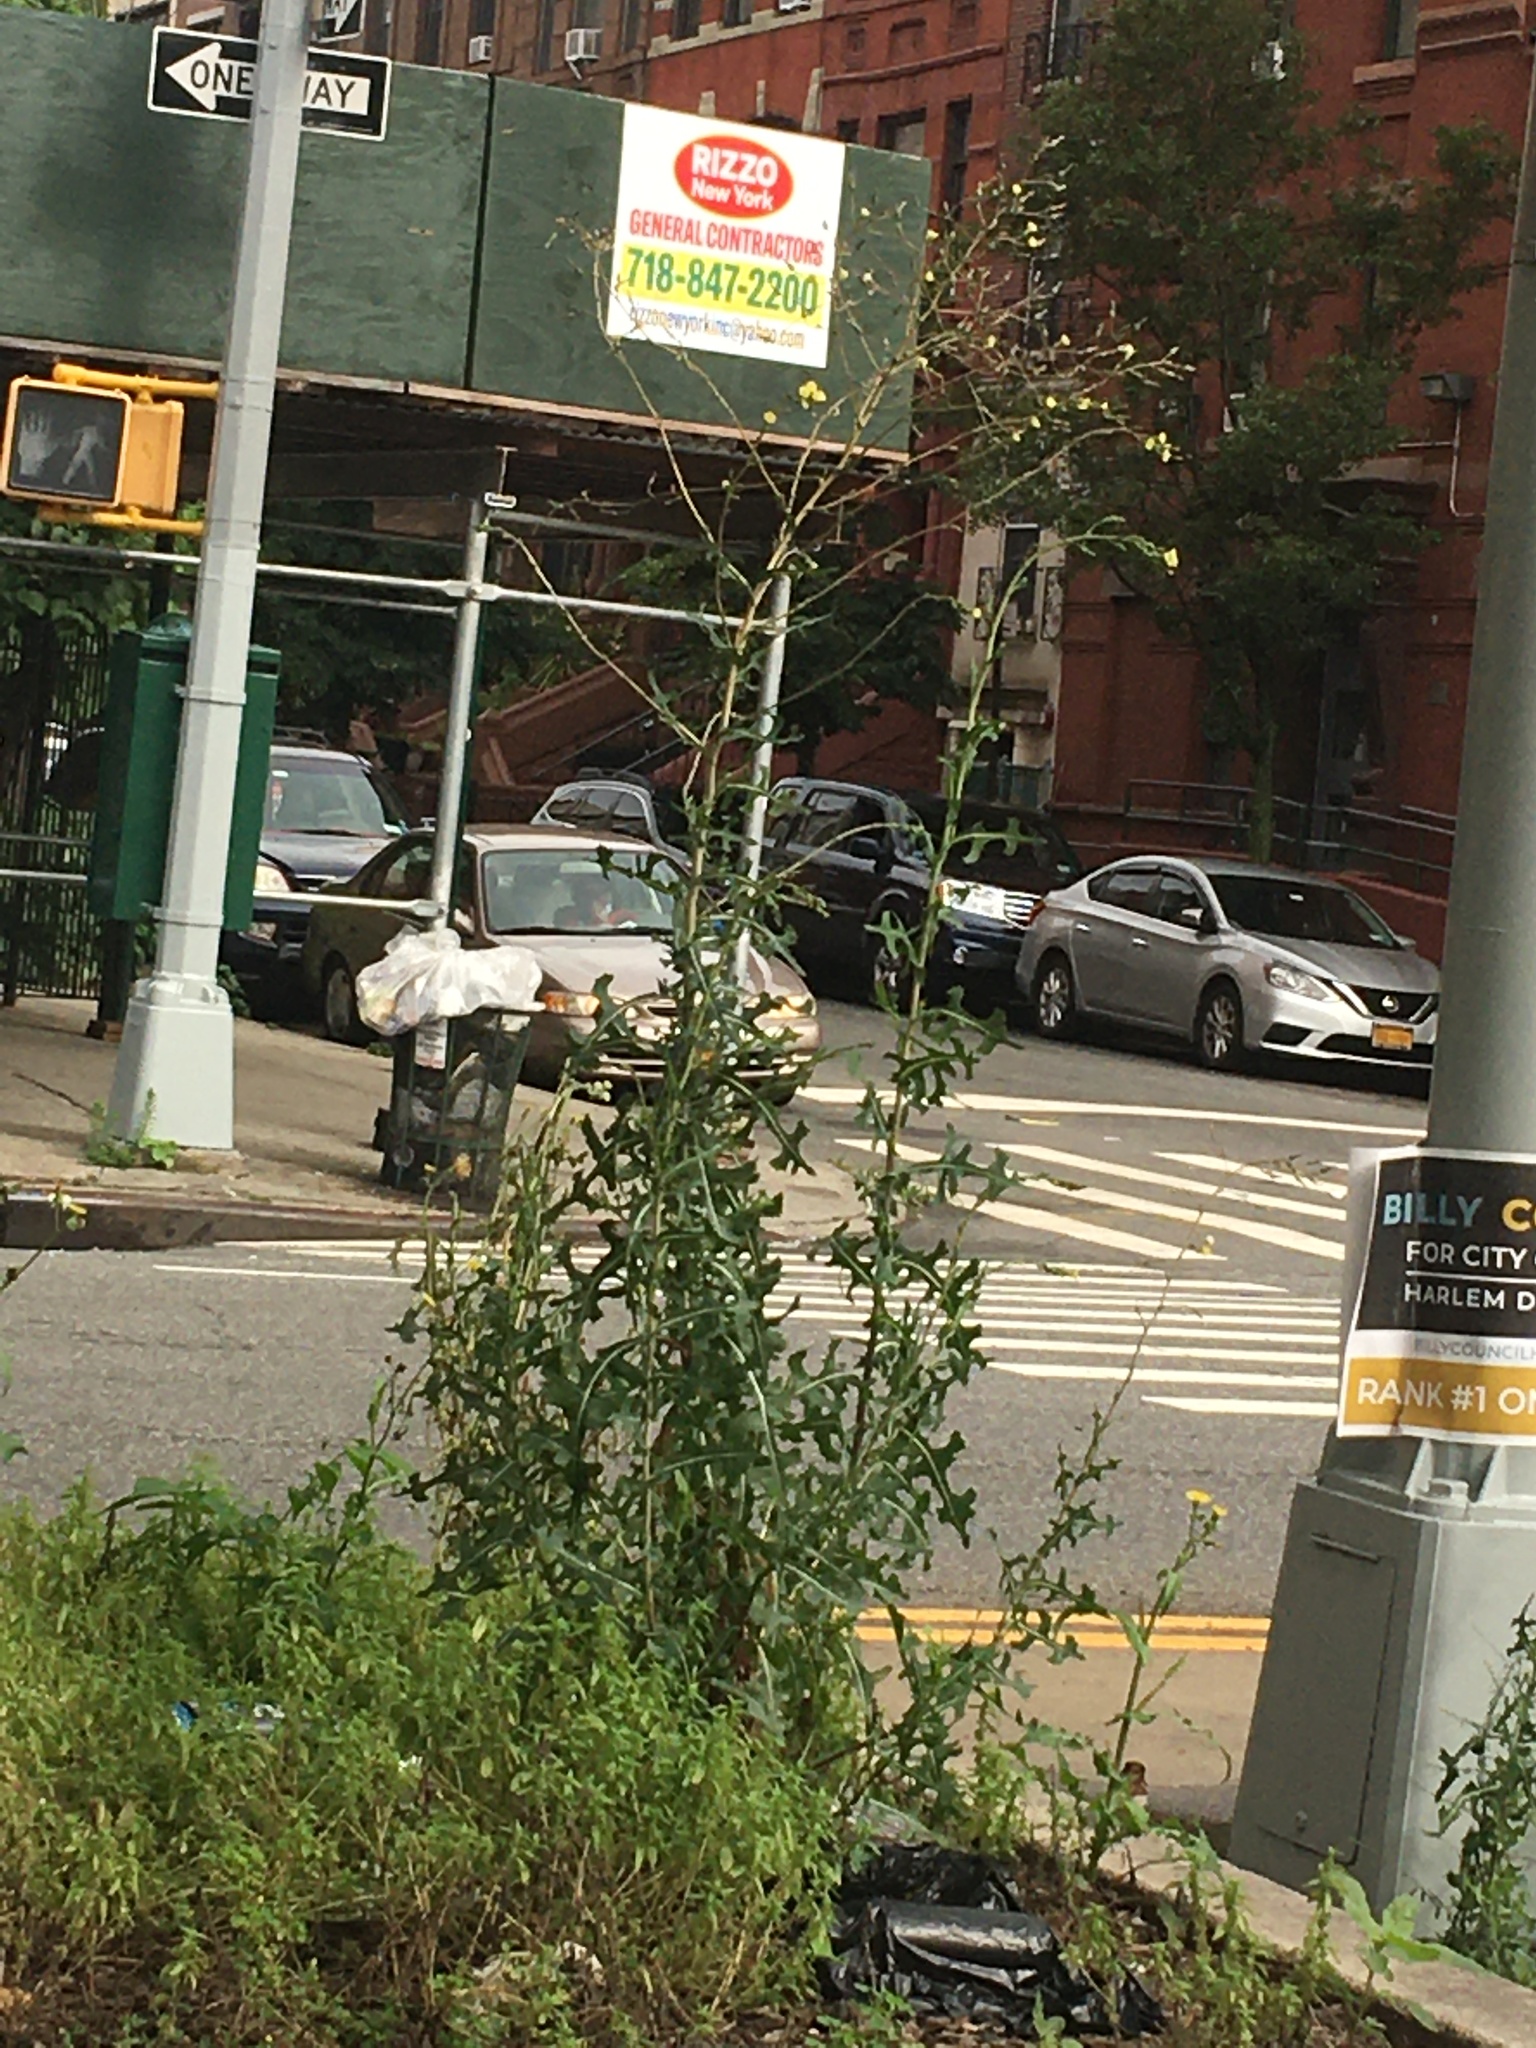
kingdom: Plantae
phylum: Tracheophyta
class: Magnoliopsida
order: Asterales
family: Asteraceae
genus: Lactuca
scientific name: Lactuca serriola
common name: Prickly lettuce
